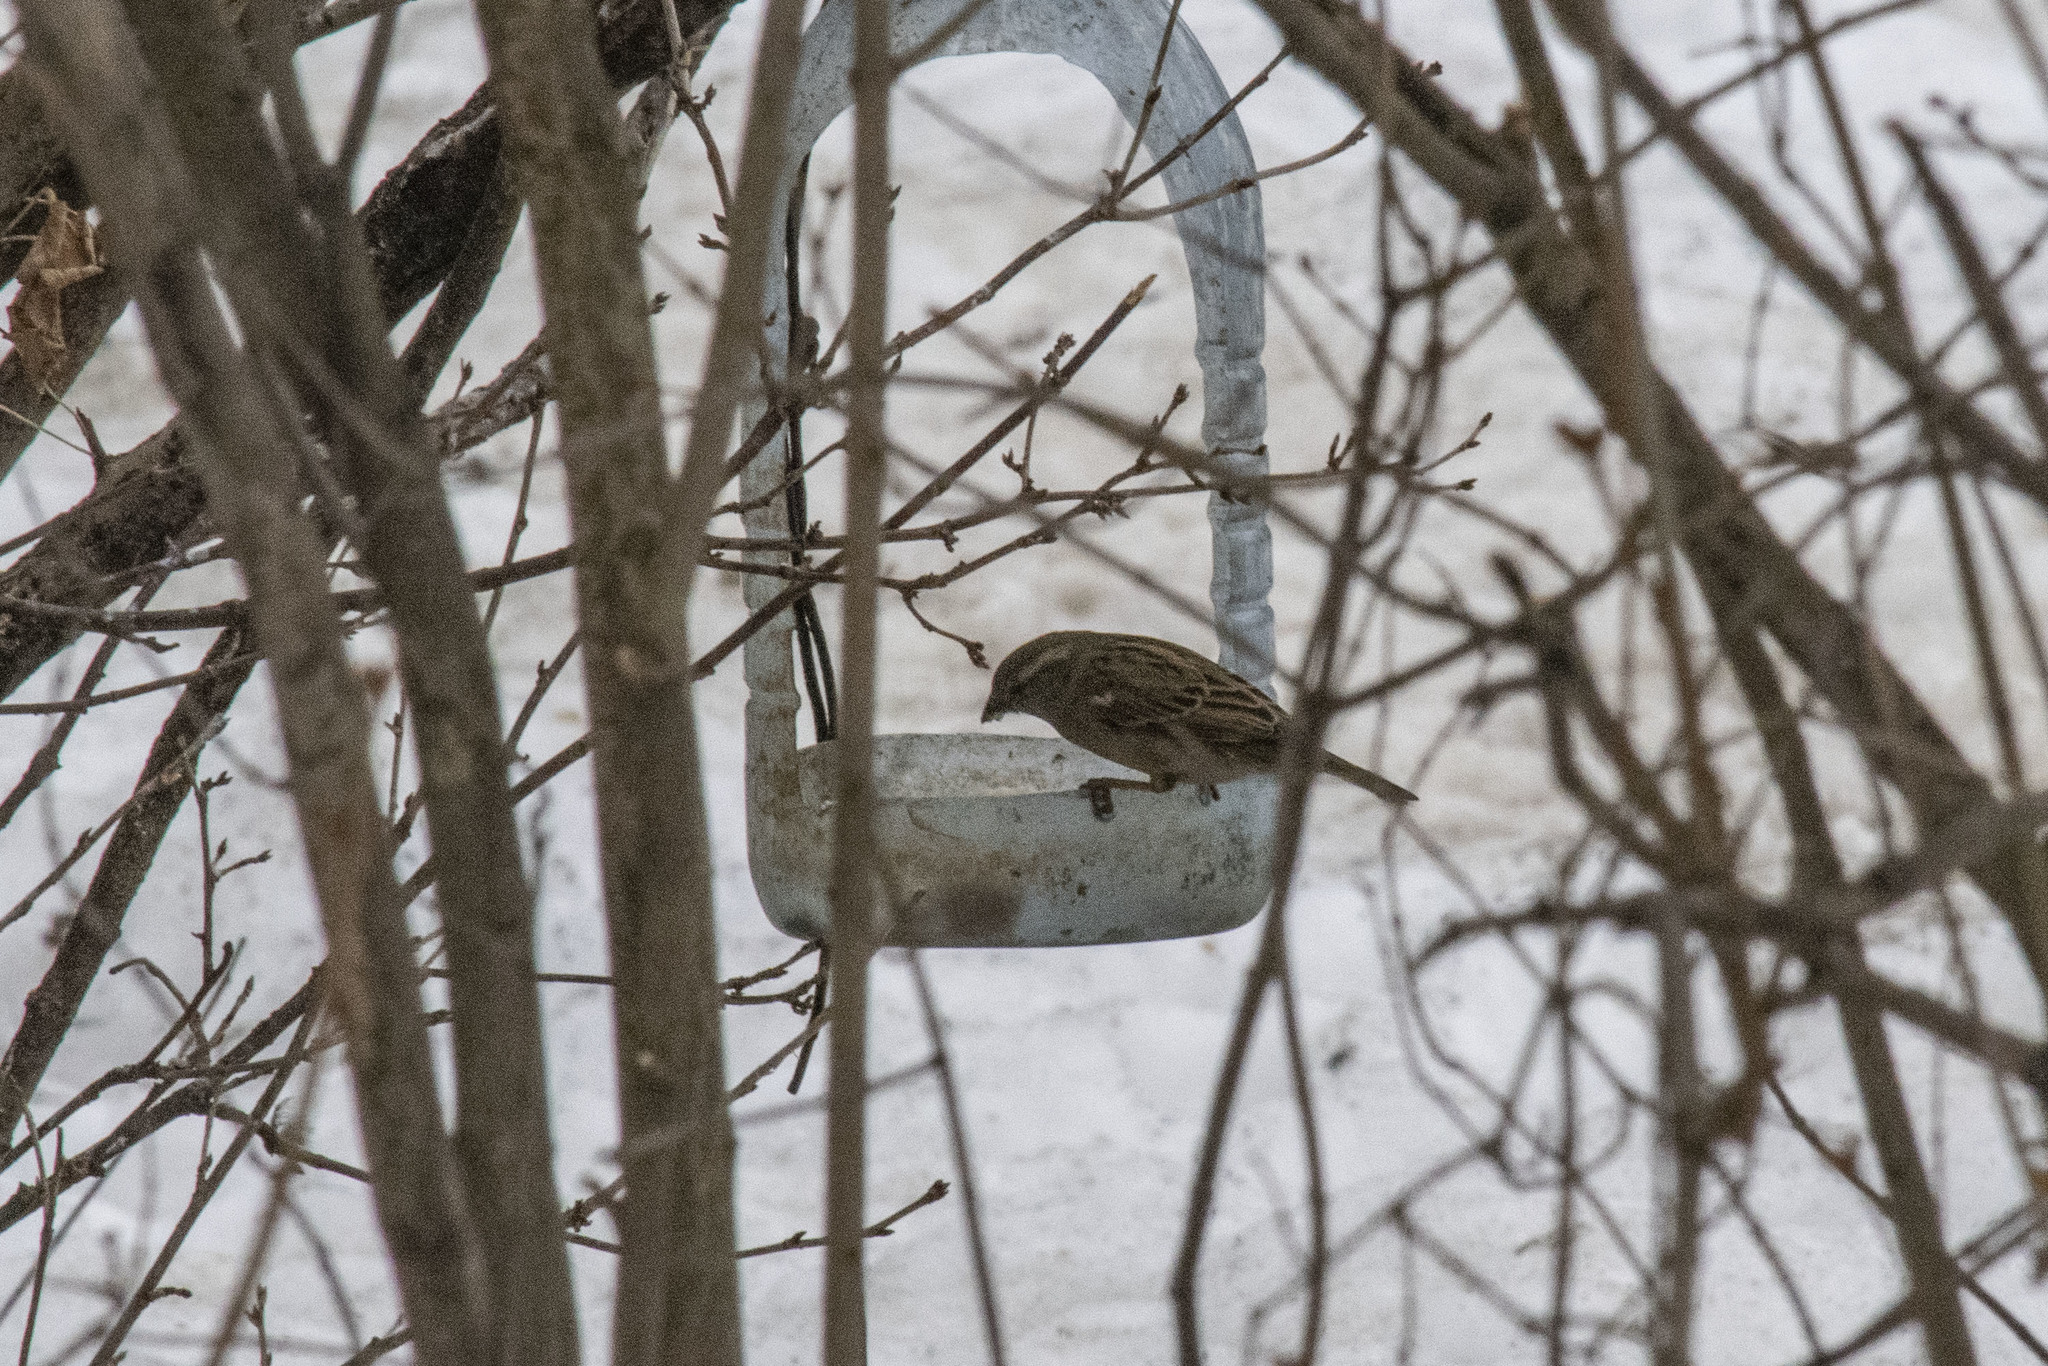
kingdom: Animalia
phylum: Chordata
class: Aves
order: Passeriformes
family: Passeridae
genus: Passer
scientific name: Passer domesticus
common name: House sparrow
